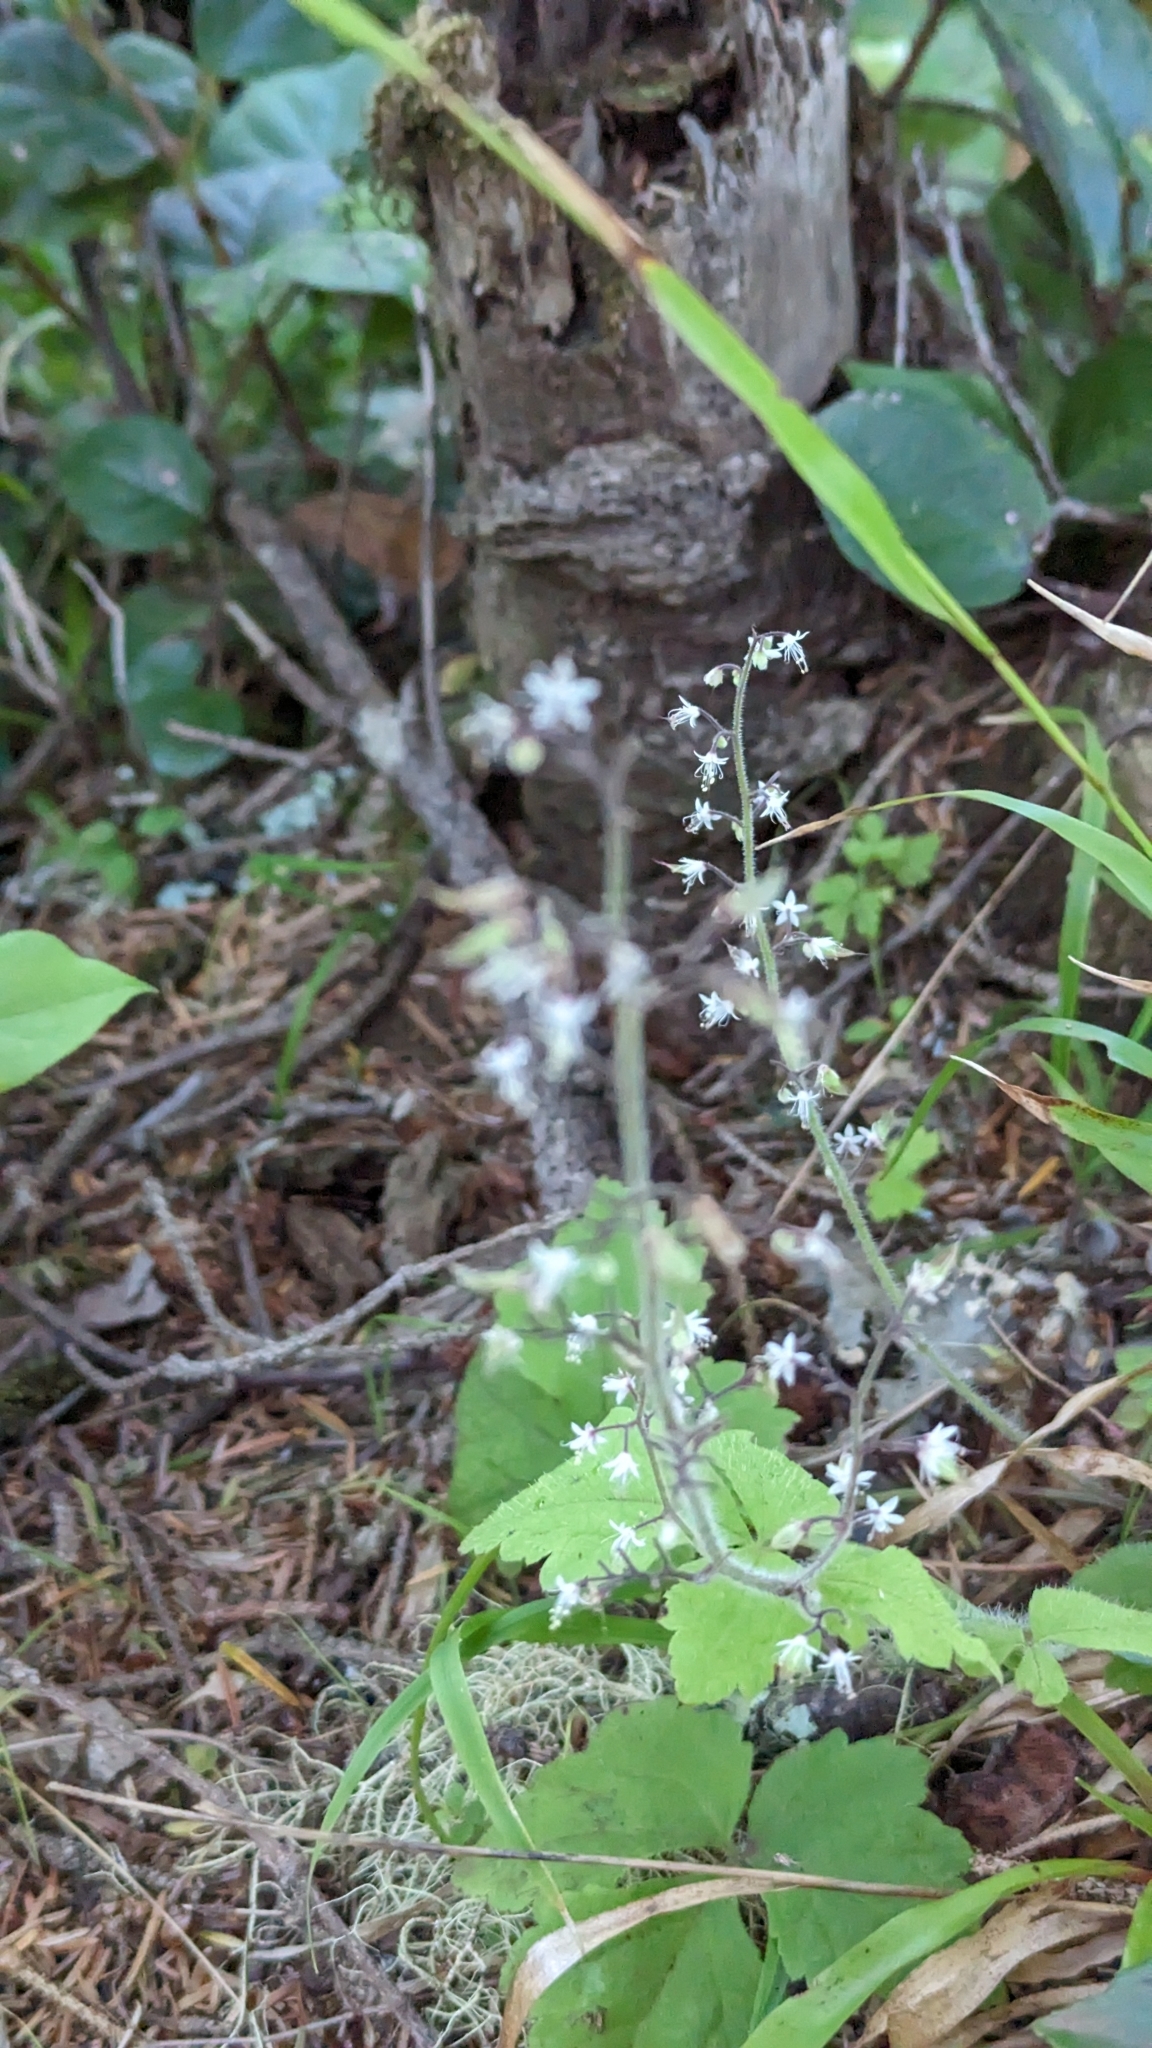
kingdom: Plantae
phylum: Tracheophyta
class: Magnoliopsida
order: Saxifragales
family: Saxifragaceae
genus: Tiarella
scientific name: Tiarella trifoliata
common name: Sugar-scoop
